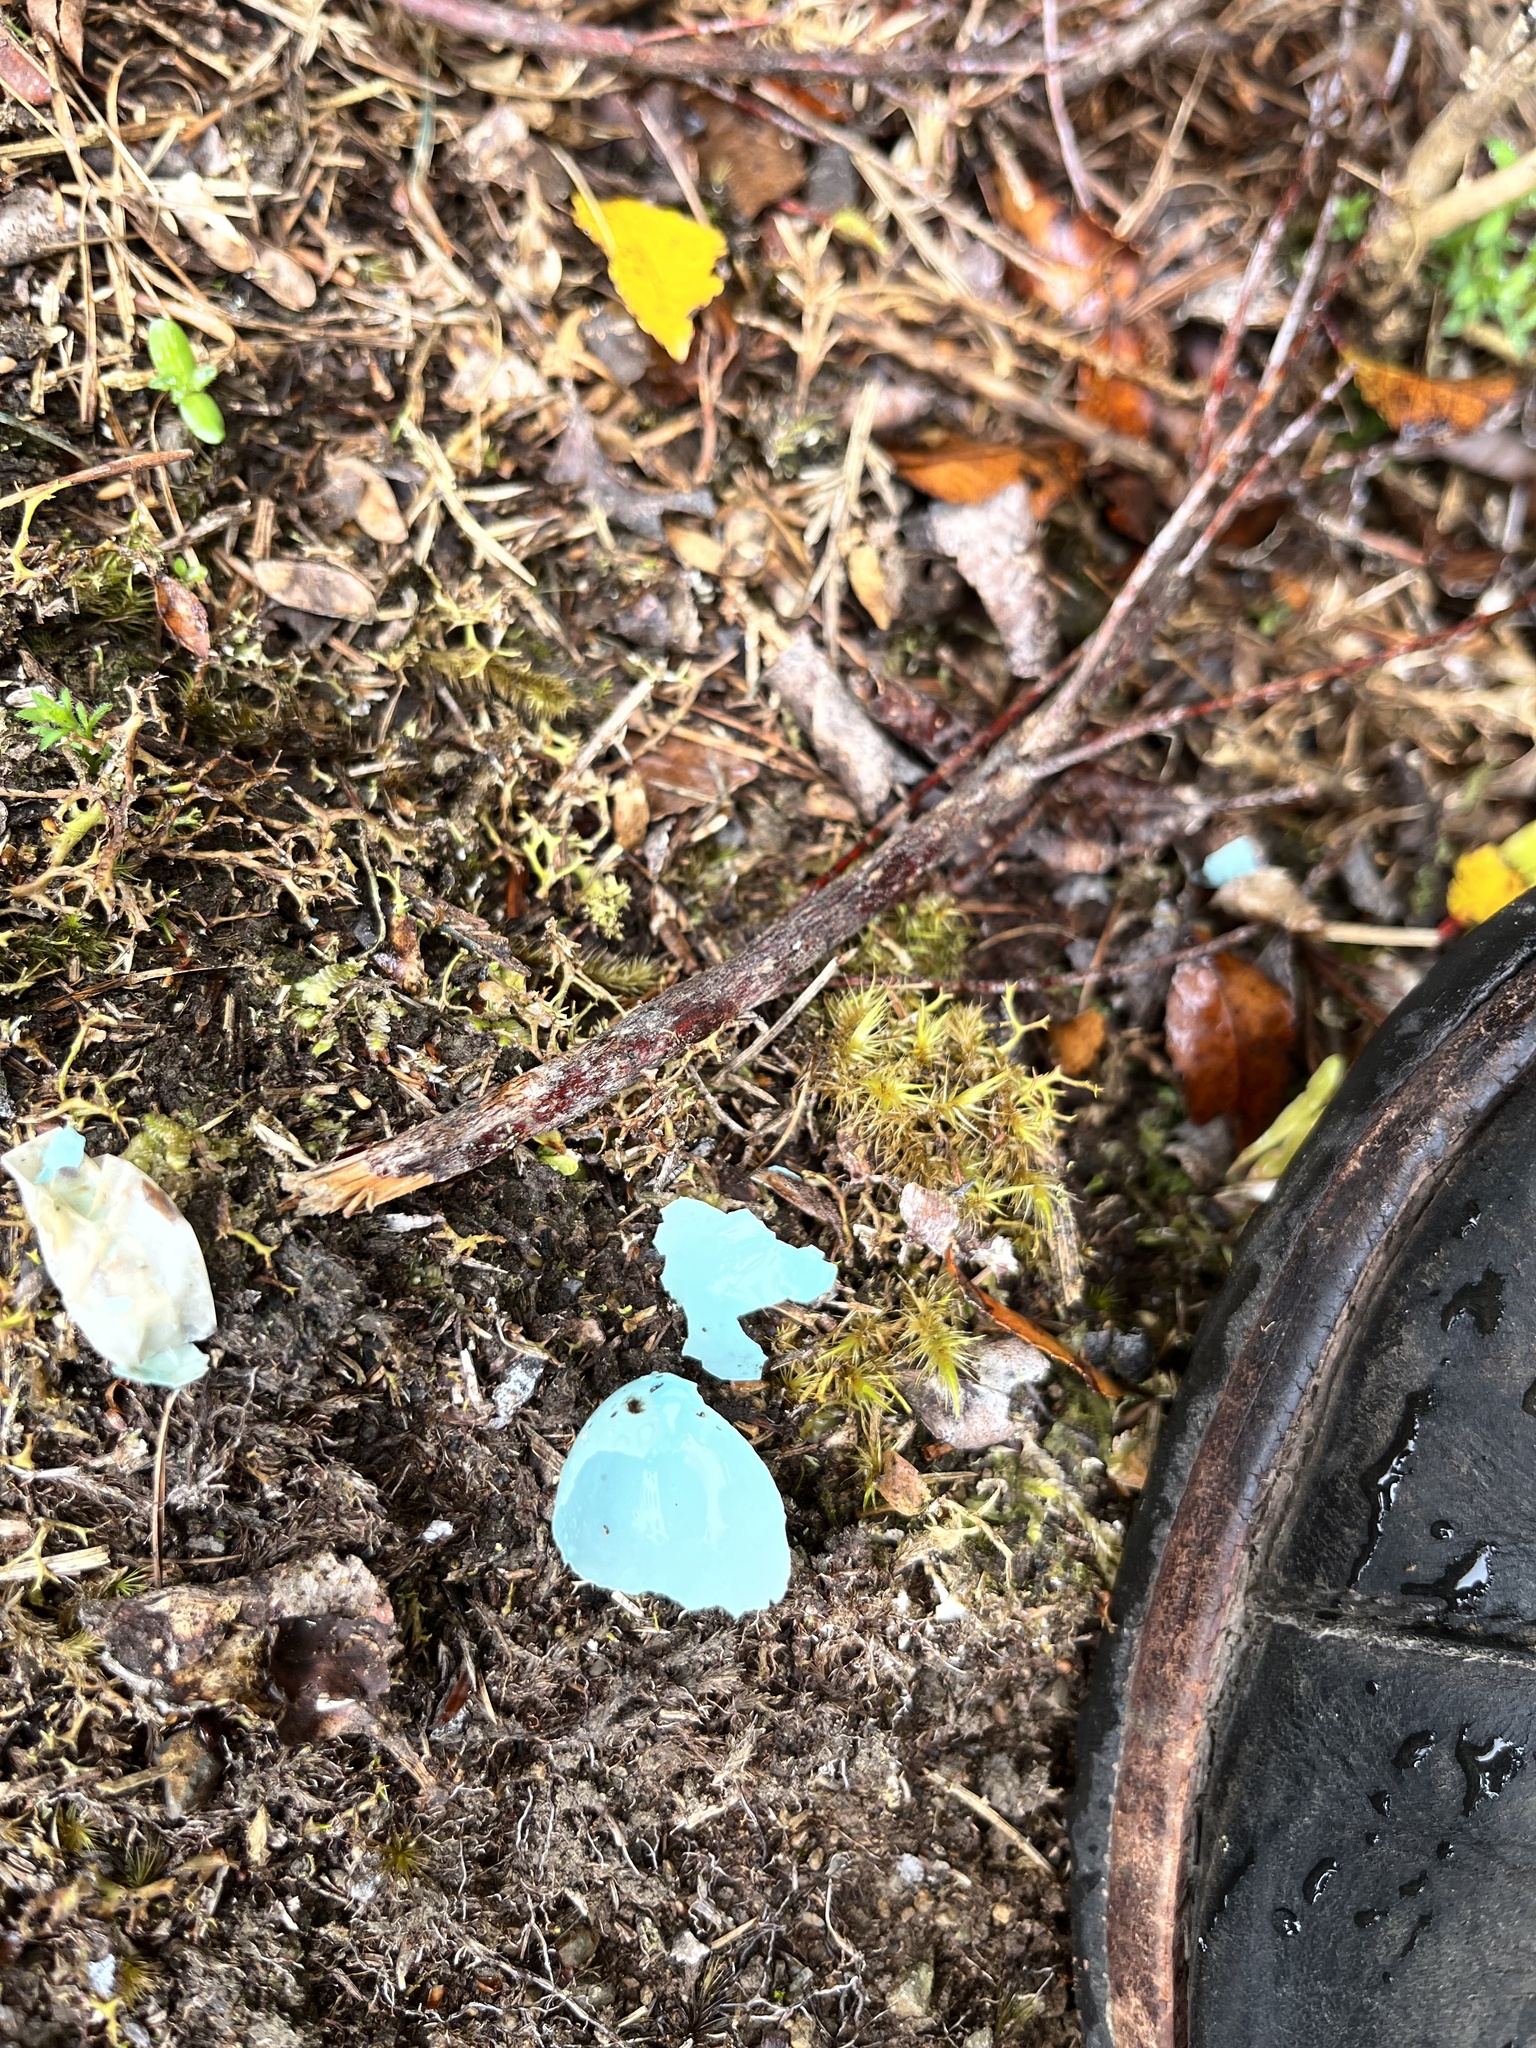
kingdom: Animalia
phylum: Chordata
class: Aves
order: Passeriformes
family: Turdidae
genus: Turdus
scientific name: Turdus philomelos
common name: Song thrush
